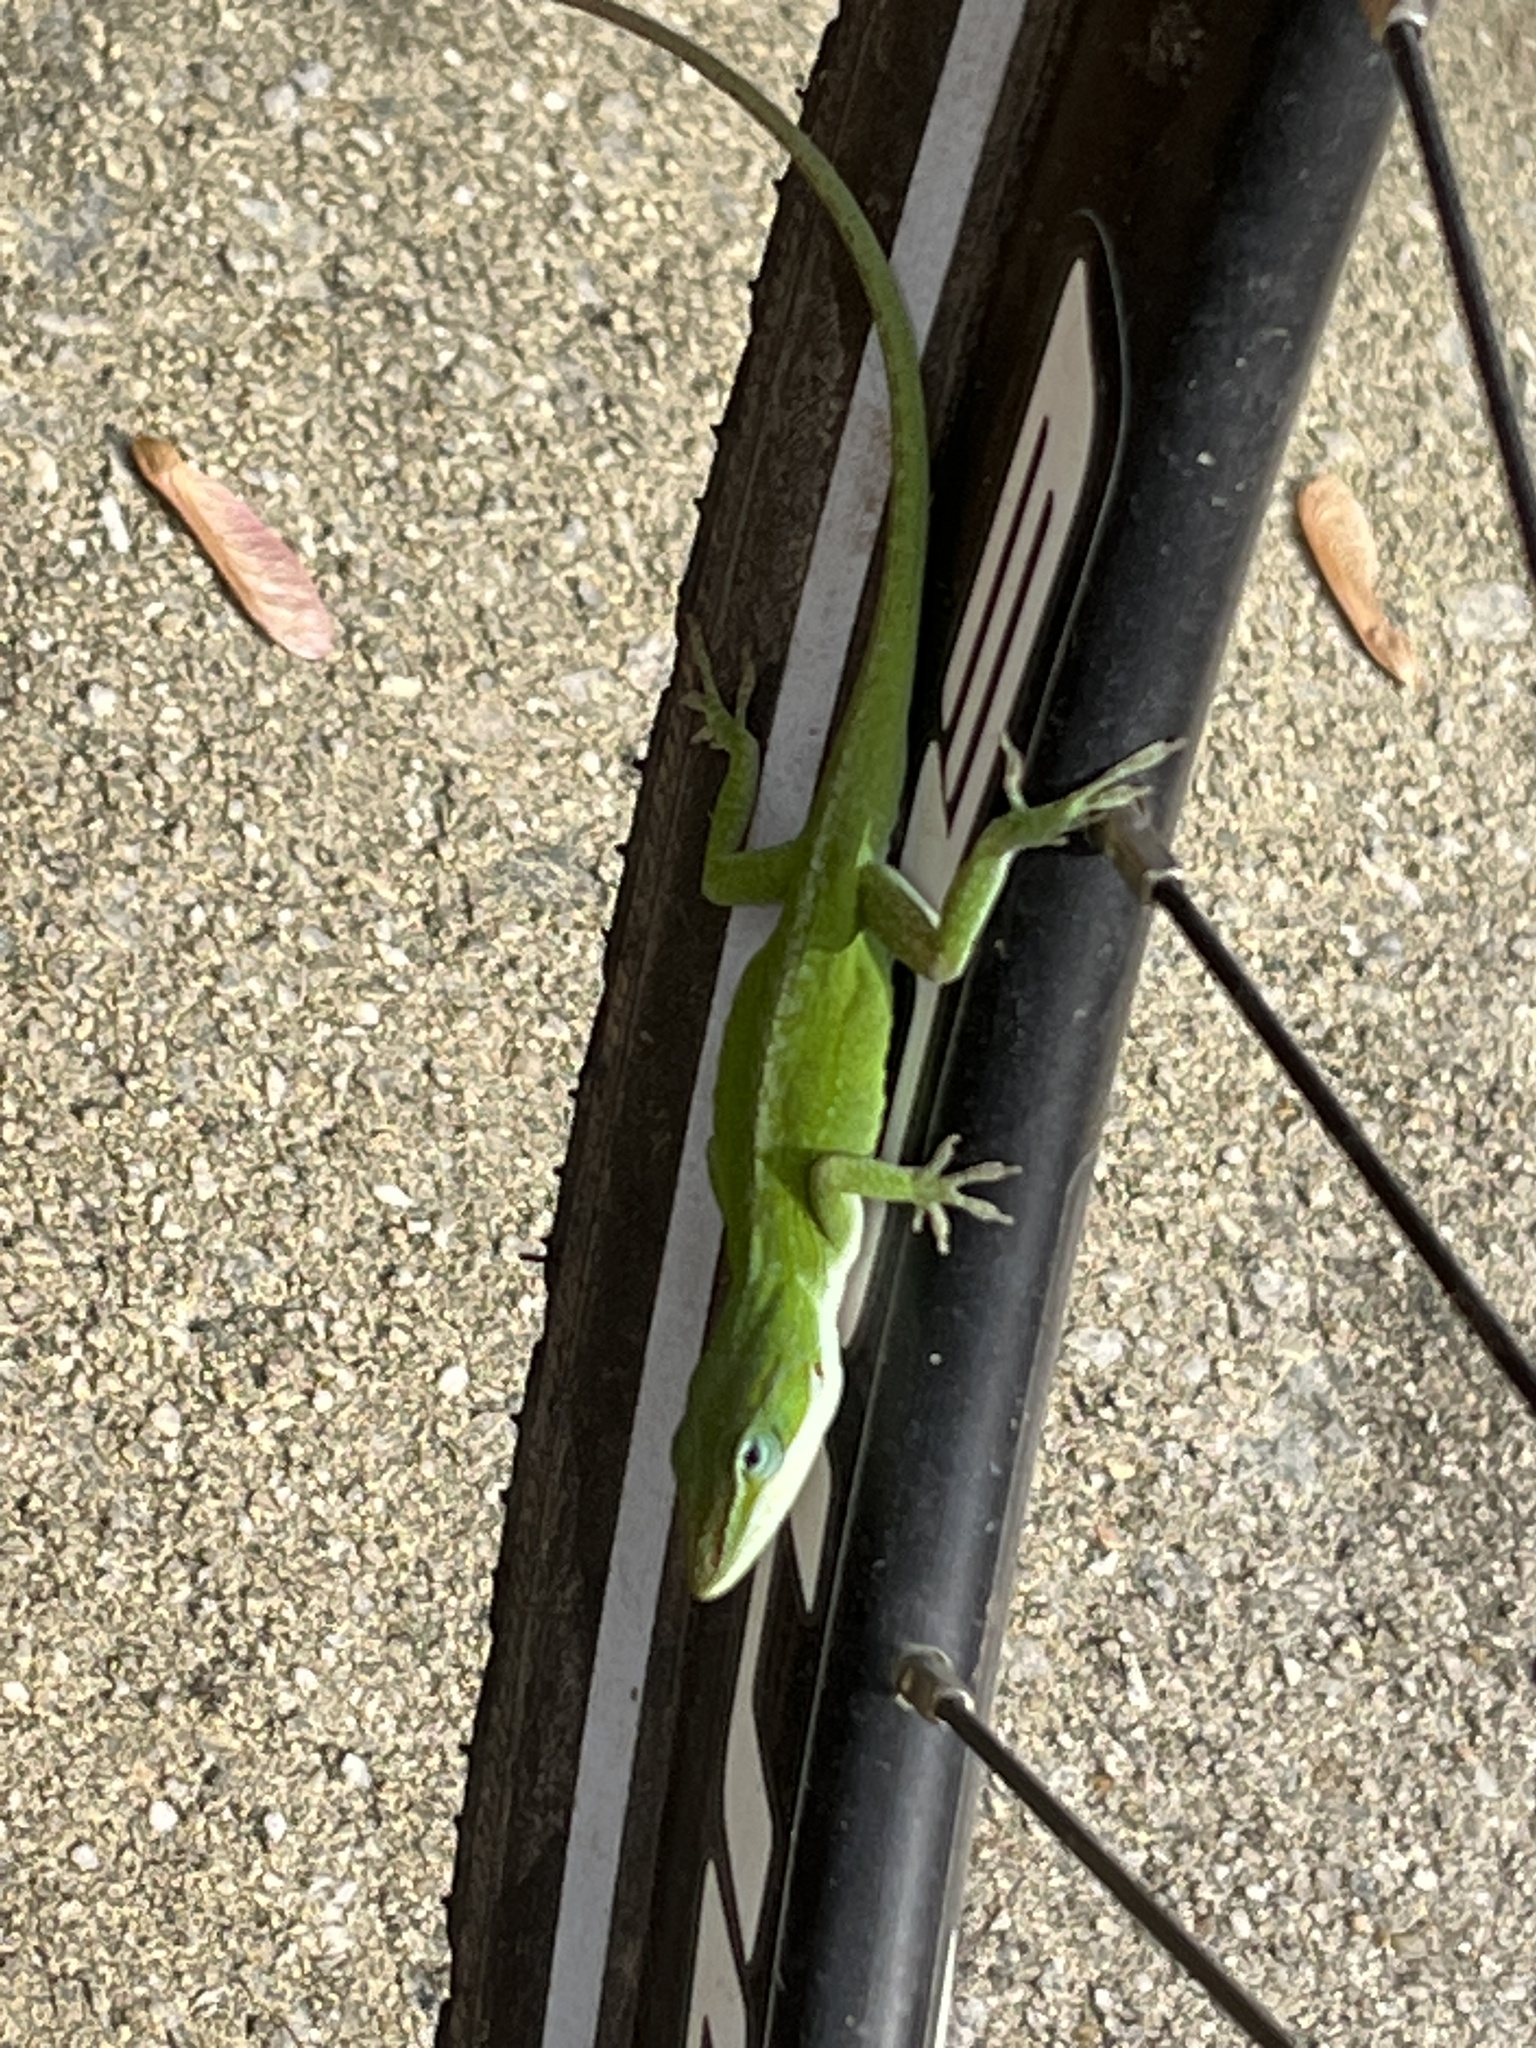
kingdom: Animalia
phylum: Chordata
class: Squamata
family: Dactyloidae
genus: Anolis
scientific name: Anolis carolinensis
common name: Green anole
